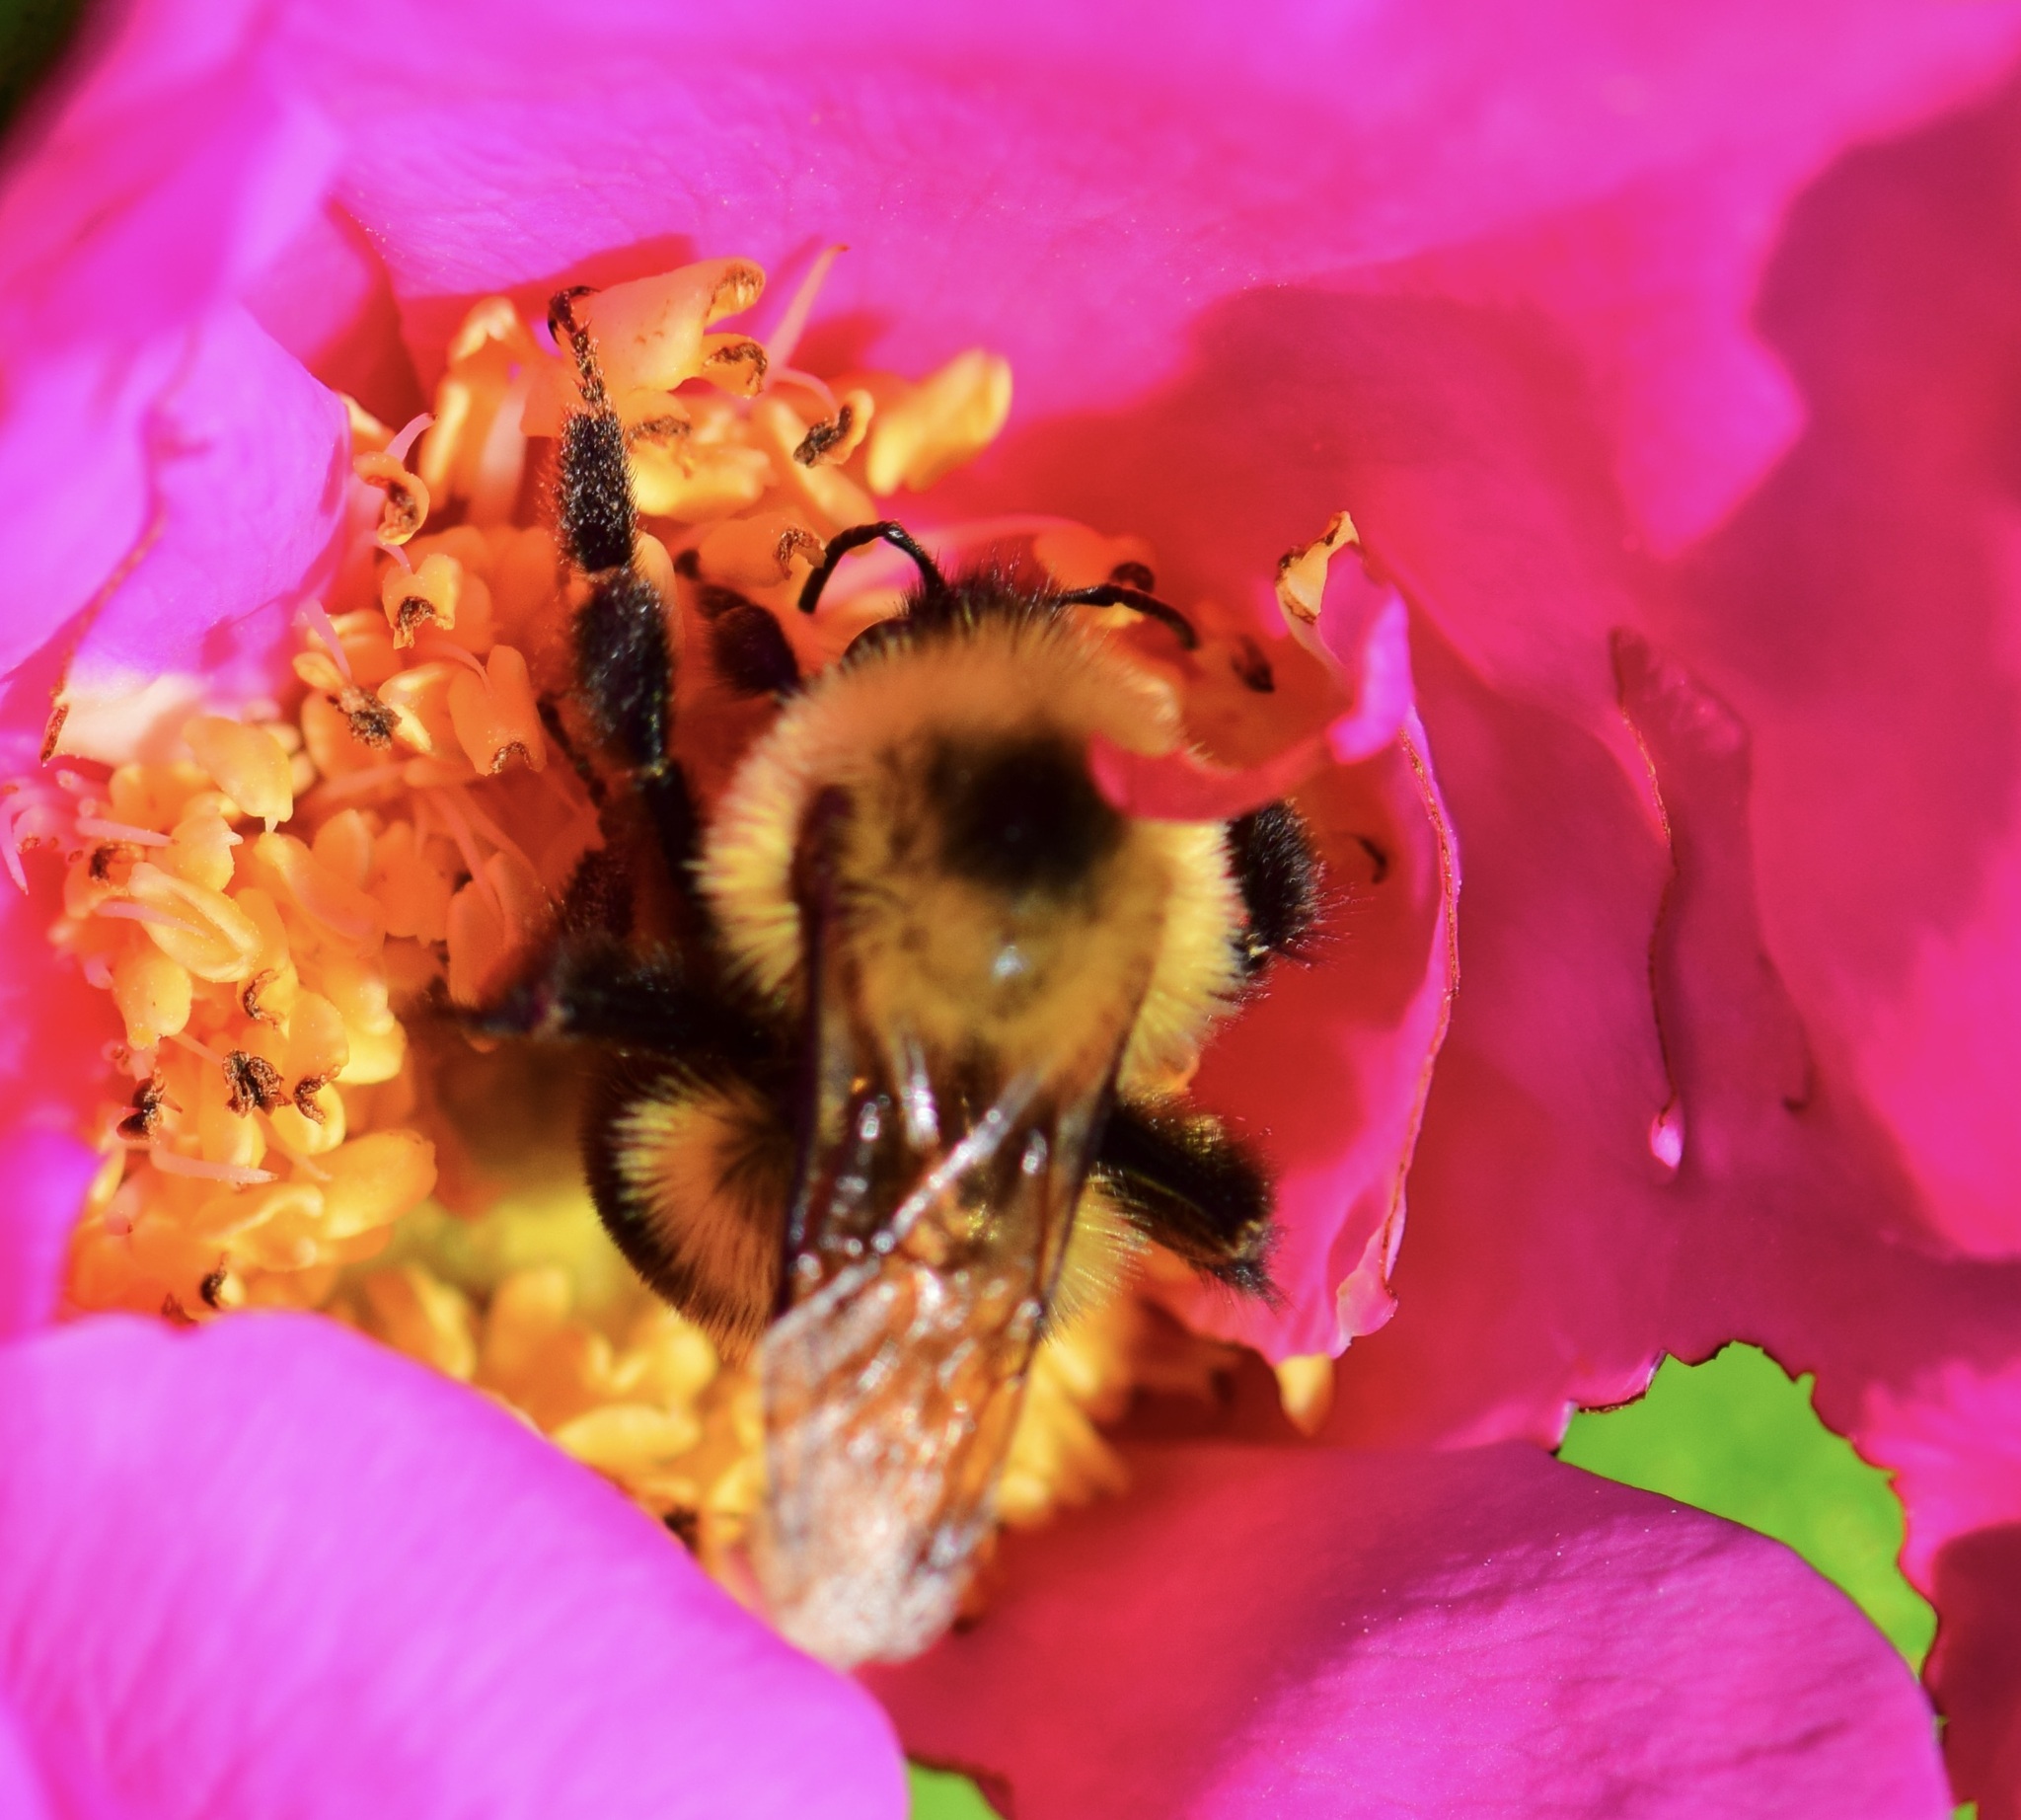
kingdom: Animalia
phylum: Arthropoda
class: Insecta
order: Hymenoptera
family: Apidae
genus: Bombus
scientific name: Bombus bimaculatus
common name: Two-spotted bumble bee
